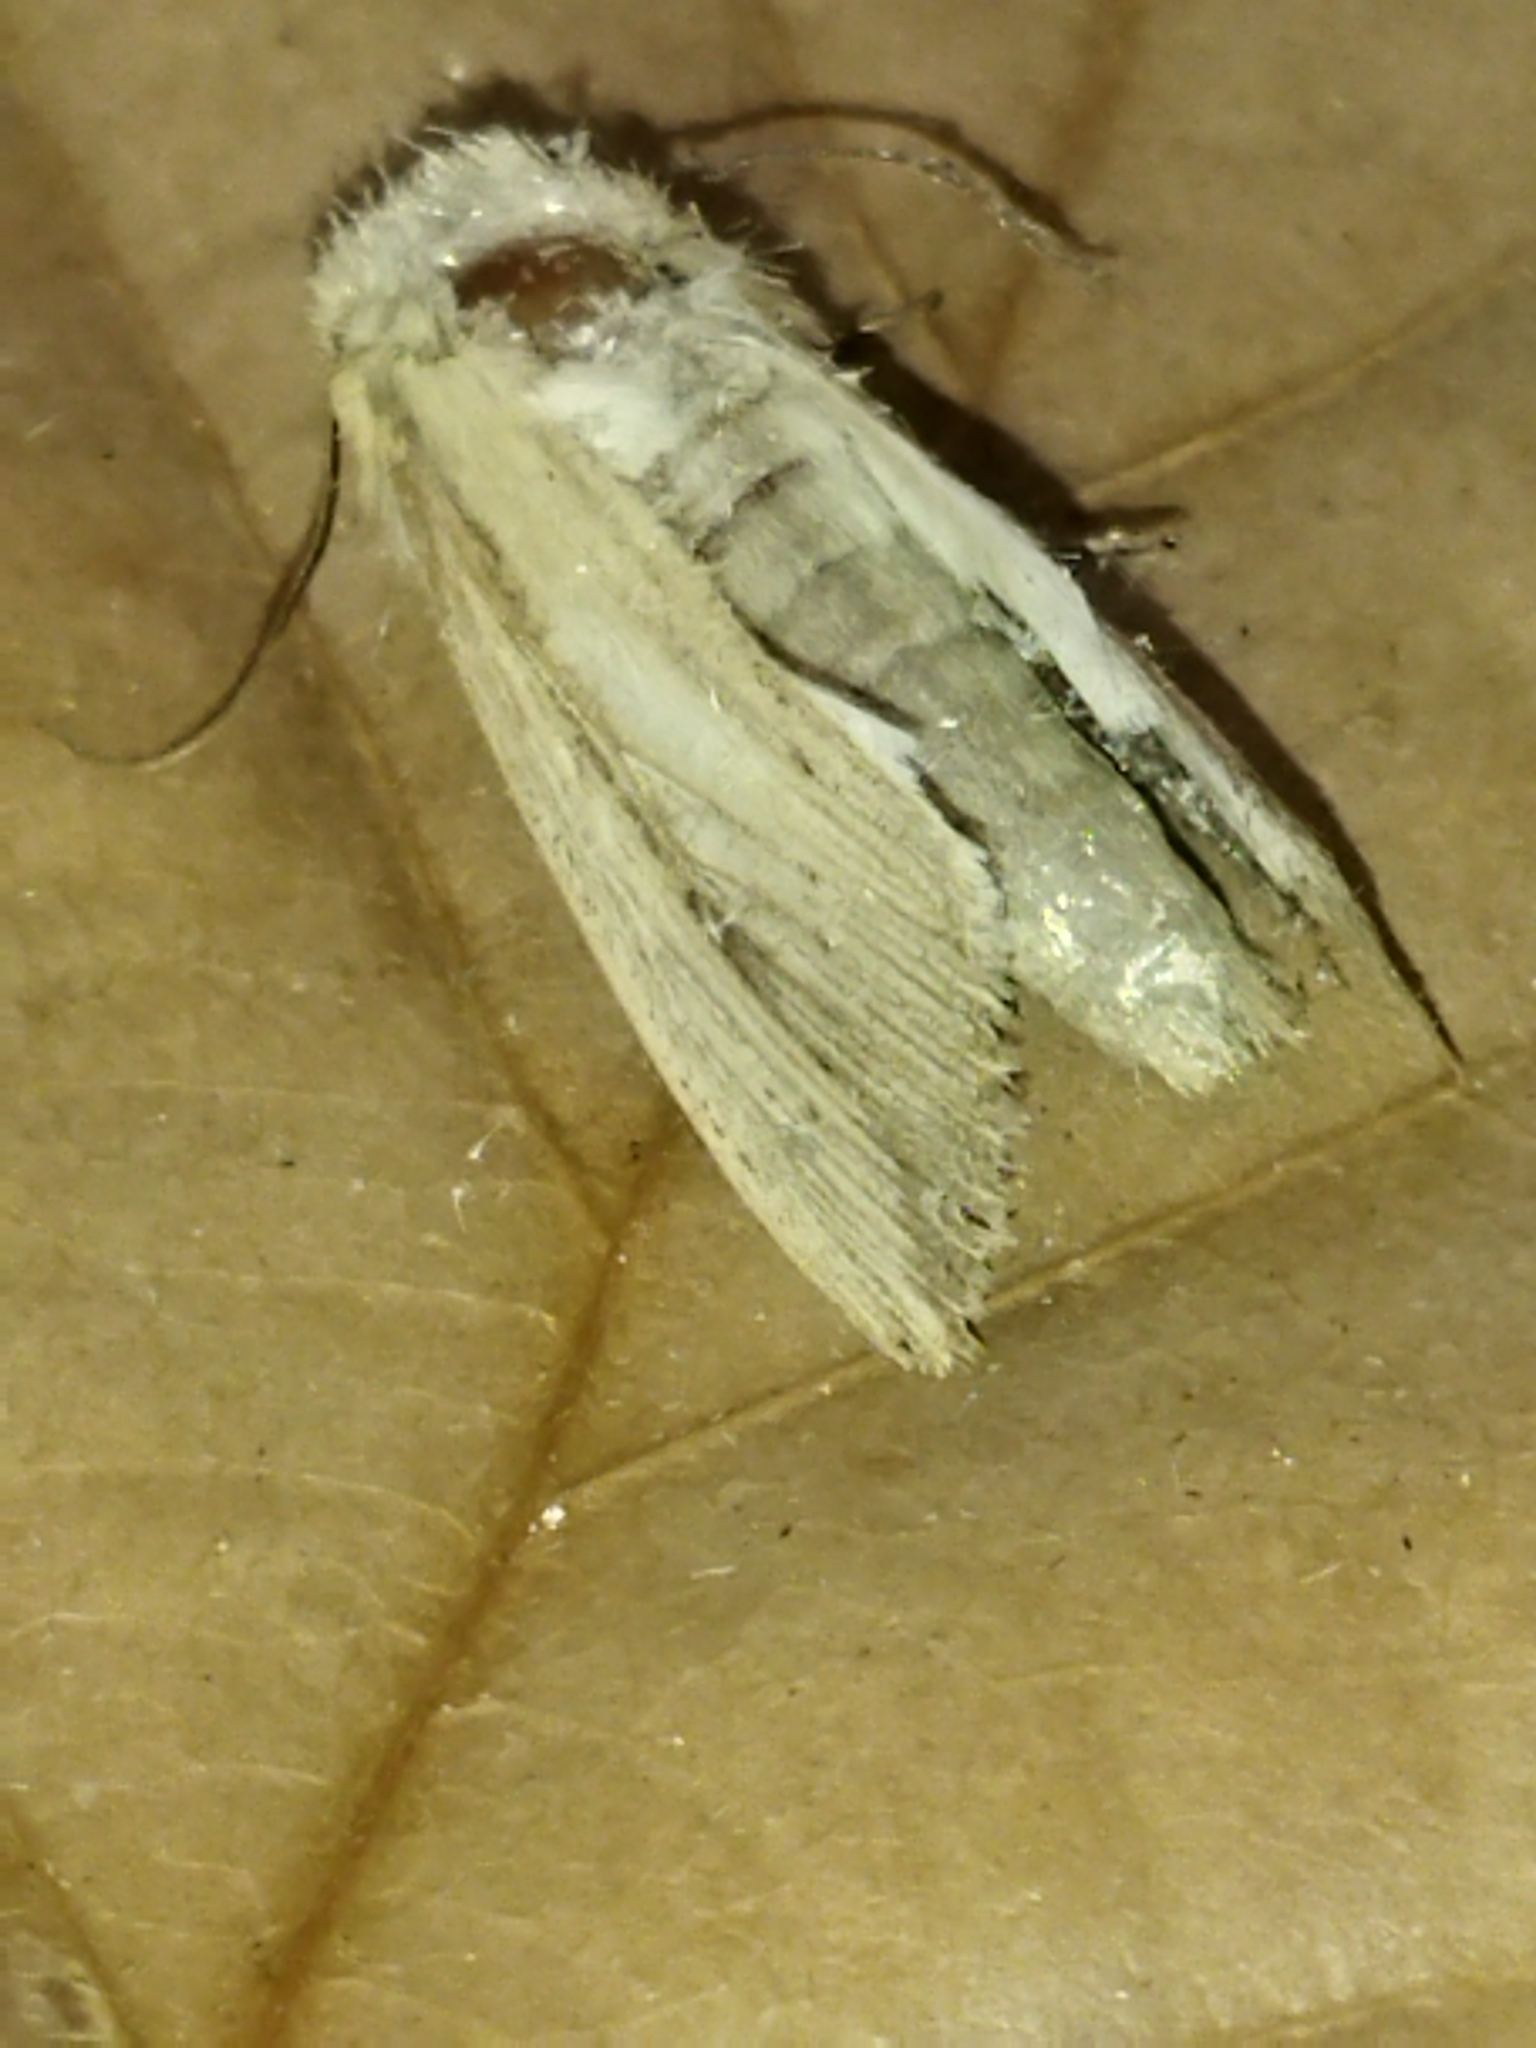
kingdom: Animalia
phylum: Arthropoda
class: Insecta
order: Lepidoptera
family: Noctuidae
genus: Leucania
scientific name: Leucania loreyi
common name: The cosmopolitan
